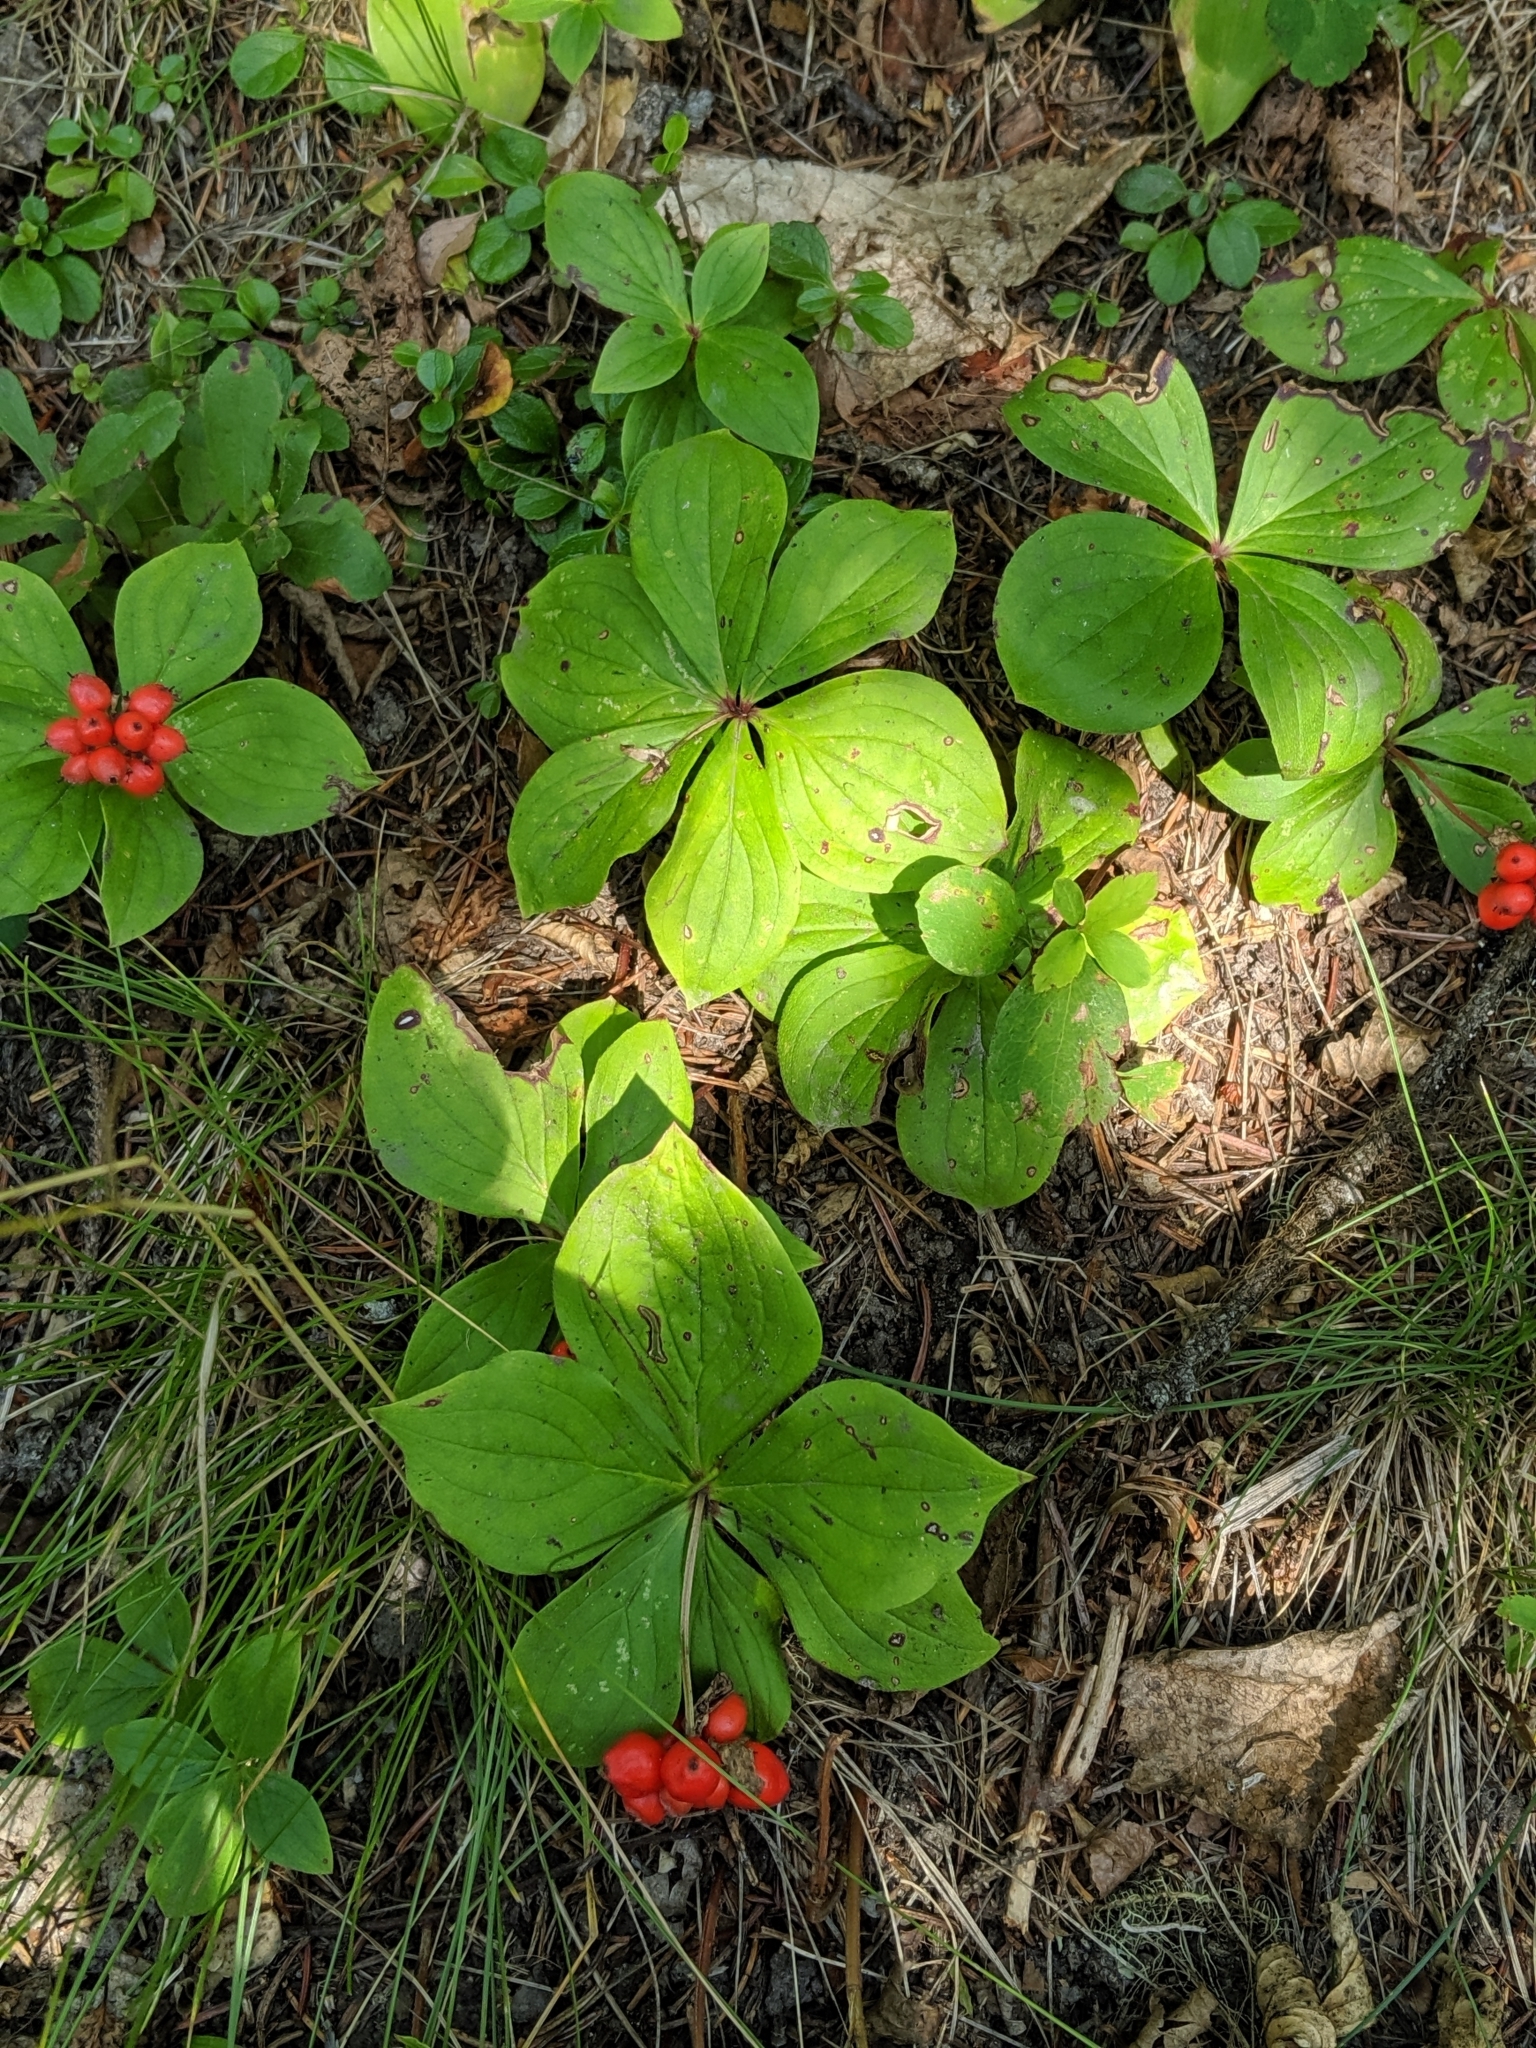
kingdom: Plantae
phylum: Tracheophyta
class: Magnoliopsida
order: Cornales
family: Cornaceae
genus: Cornus
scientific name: Cornus canadensis
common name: Creeping dogwood
